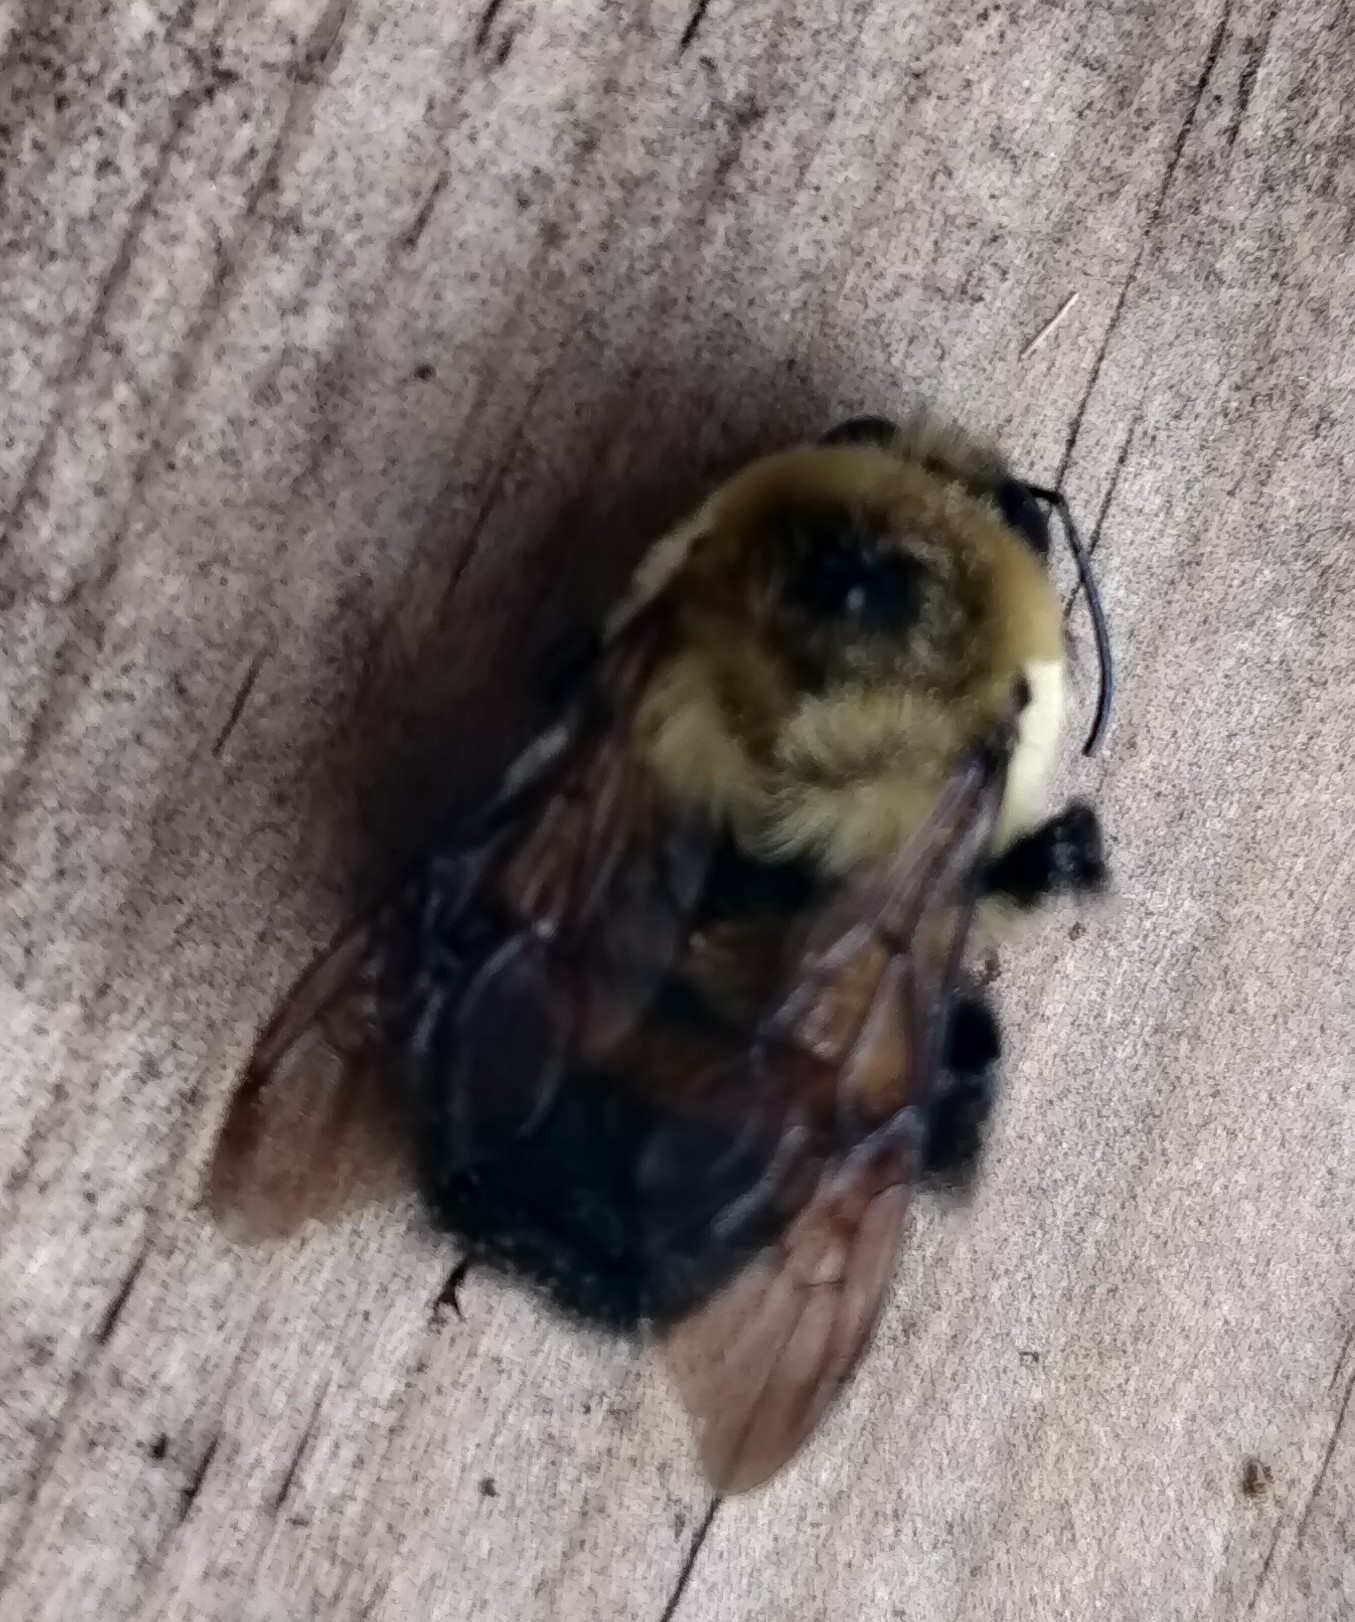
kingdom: Animalia
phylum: Arthropoda
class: Insecta
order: Hymenoptera
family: Apidae
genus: Bombus
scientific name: Bombus griseocollis
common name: Brown-belted bumble bee
